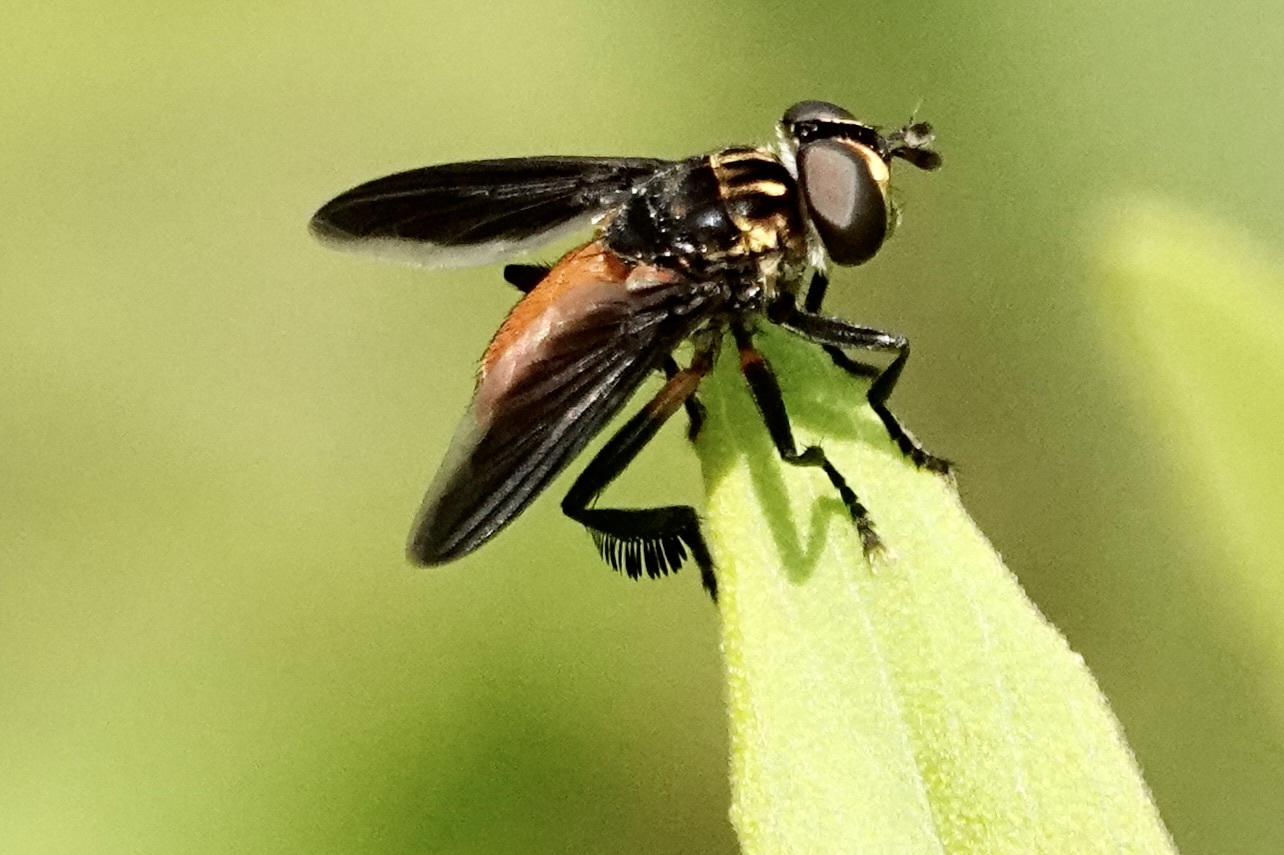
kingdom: Animalia
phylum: Arthropoda
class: Insecta
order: Diptera
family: Tachinidae
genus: Trichopoda
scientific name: Trichopoda pennipes
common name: Tachinid fly
